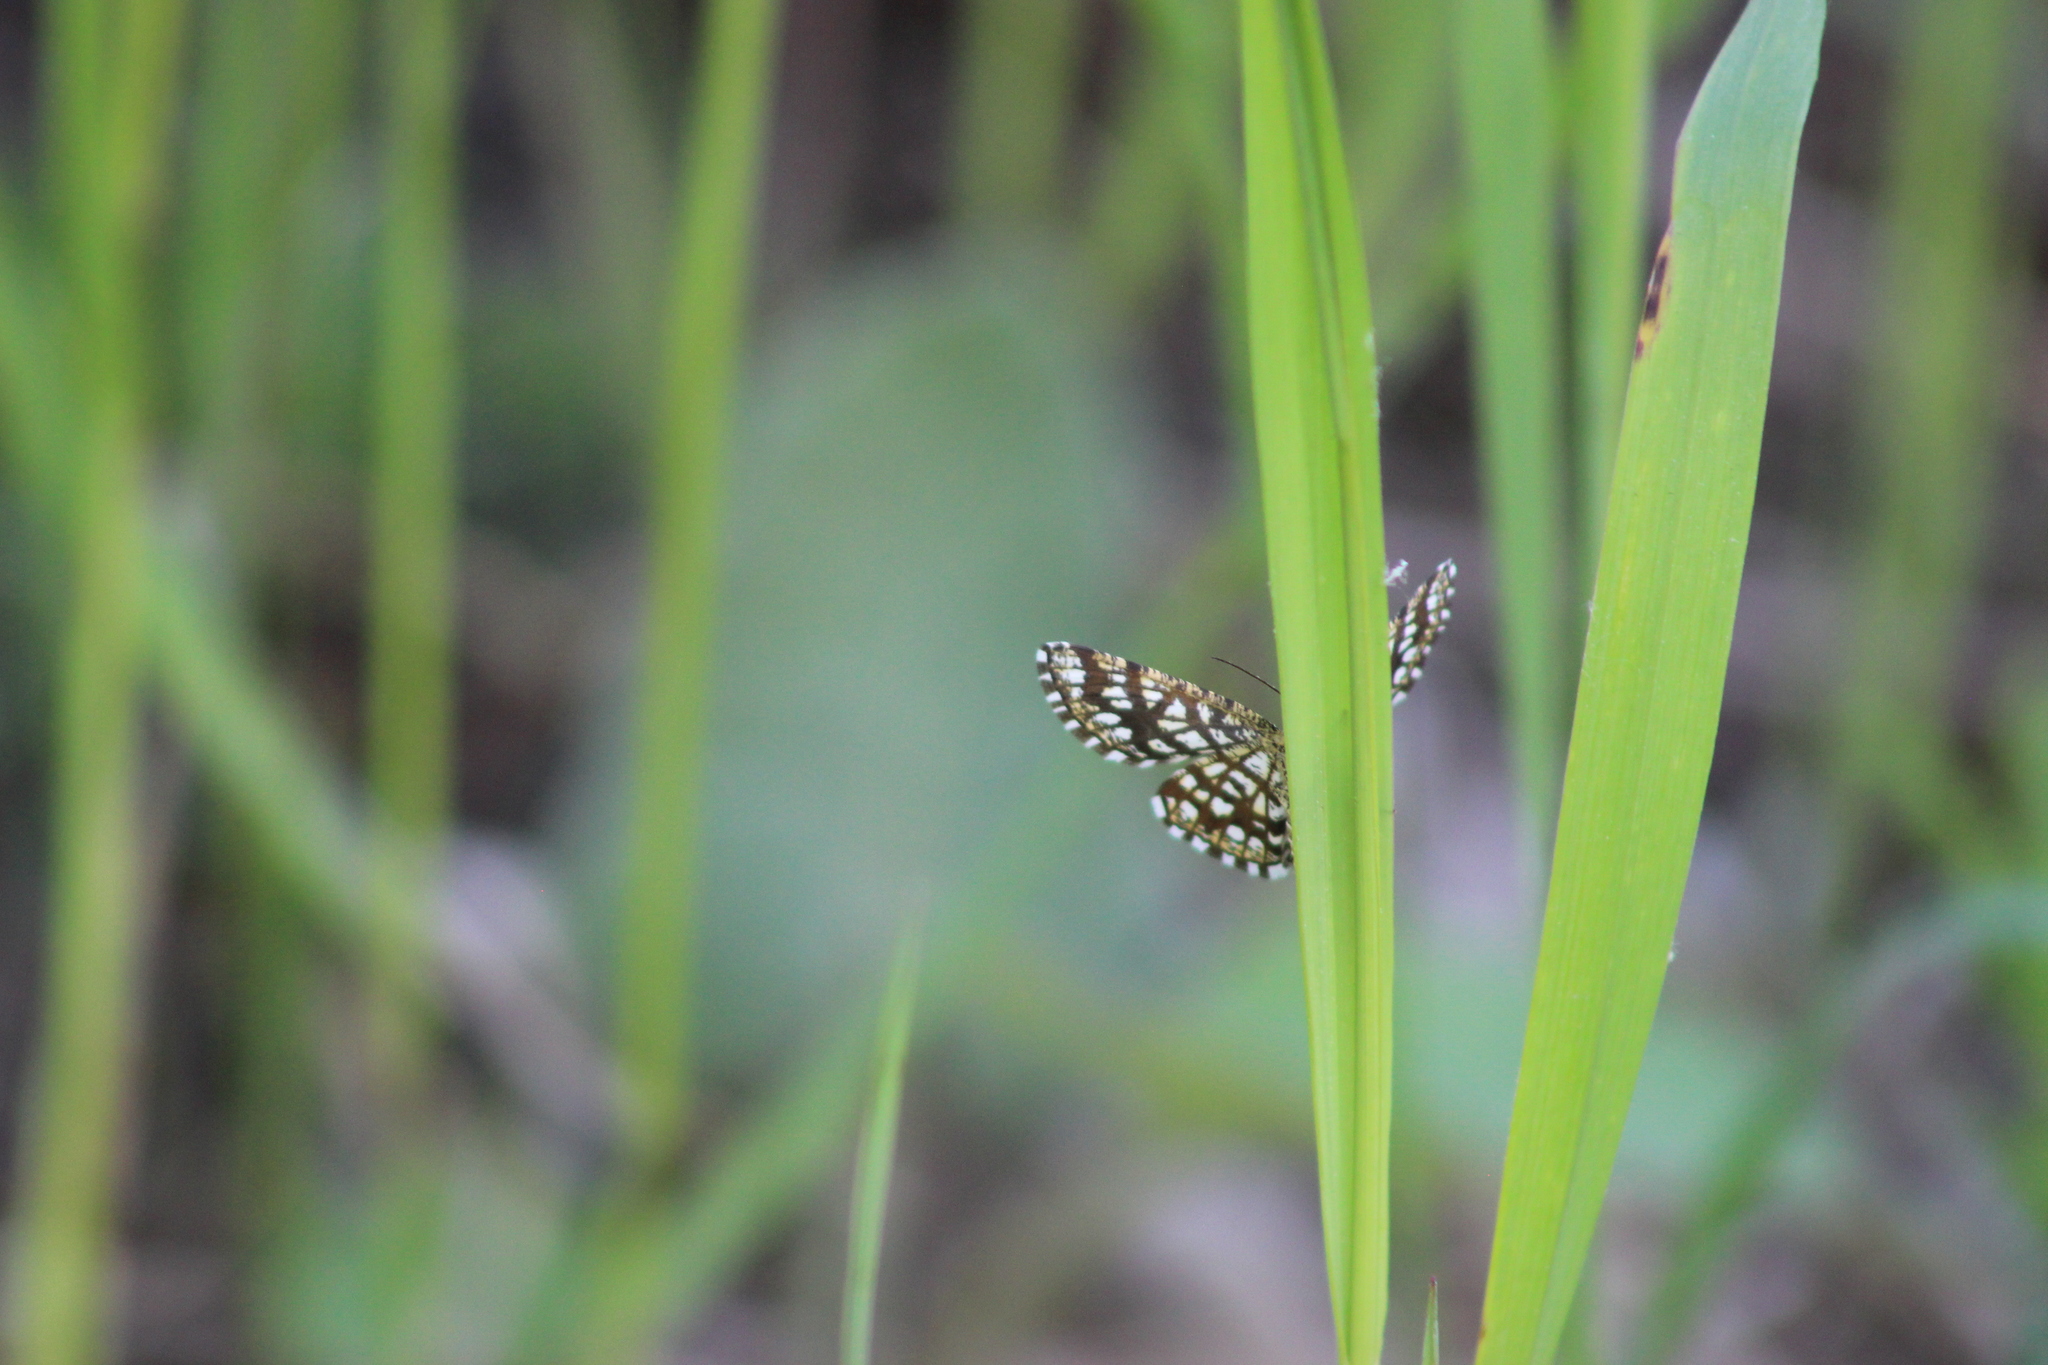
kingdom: Animalia
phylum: Arthropoda
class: Insecta
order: Lepidoptera
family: Geometridae
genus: Chiasmia
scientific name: Chiasmia clathrata
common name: Latticed heath
